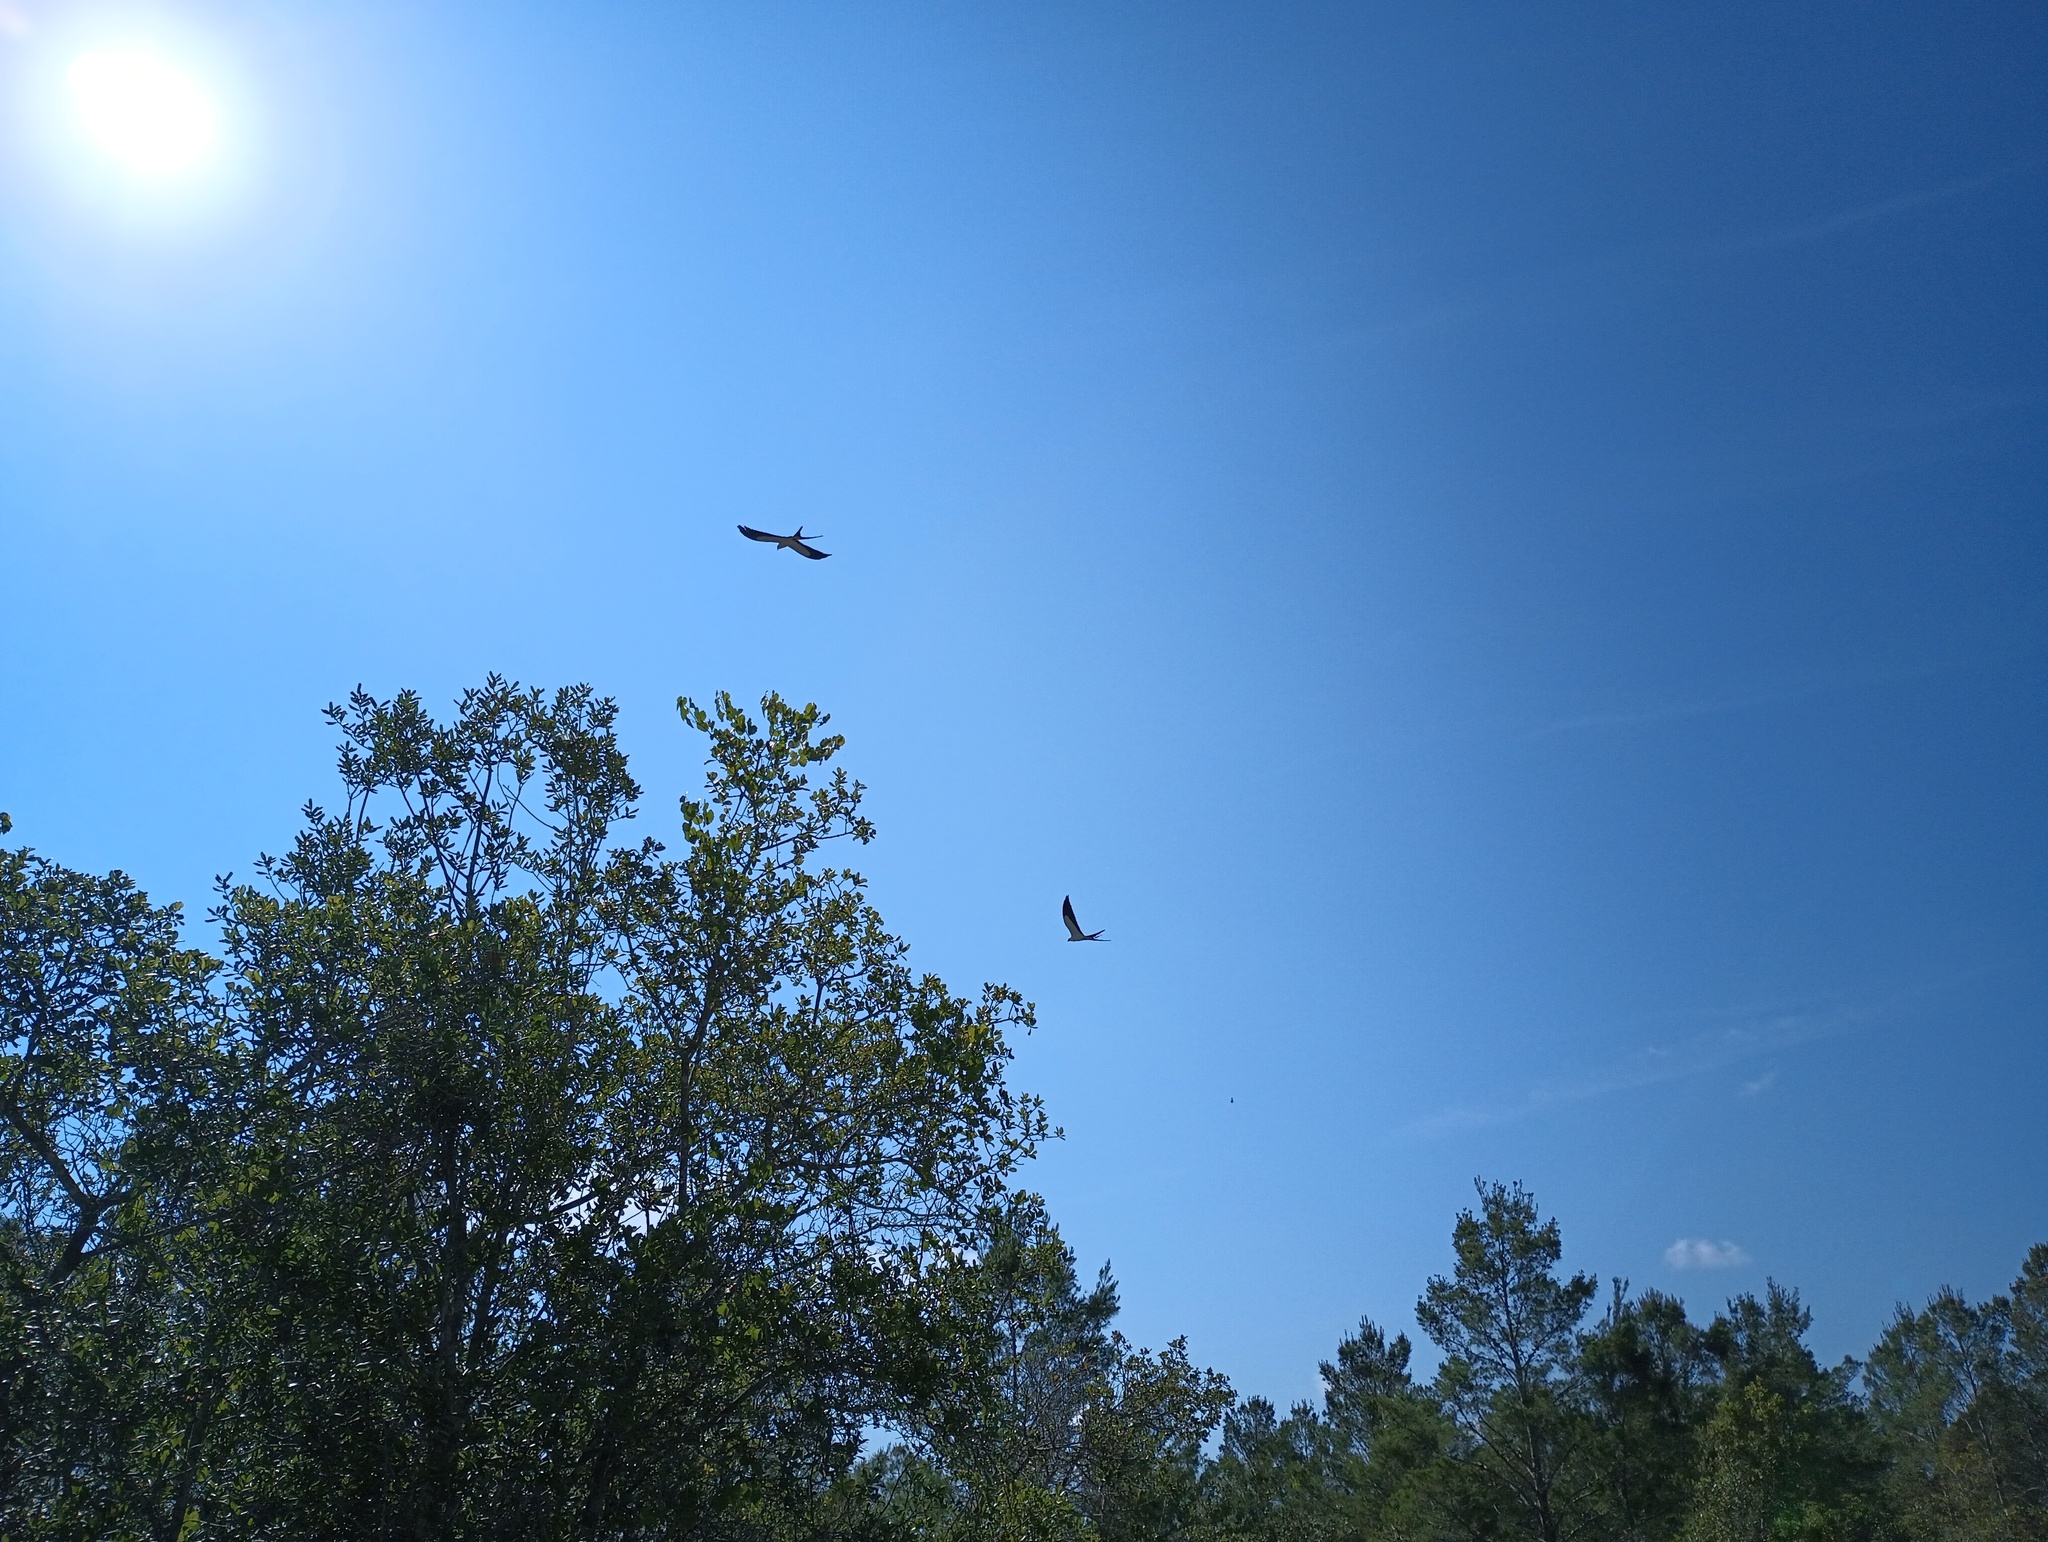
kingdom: Animalia
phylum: Chordata
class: Aves
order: Accipitriformes
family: Accipitridae
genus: Elanoides
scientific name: Elanoides forficatus
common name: Swallow-tailed kite
